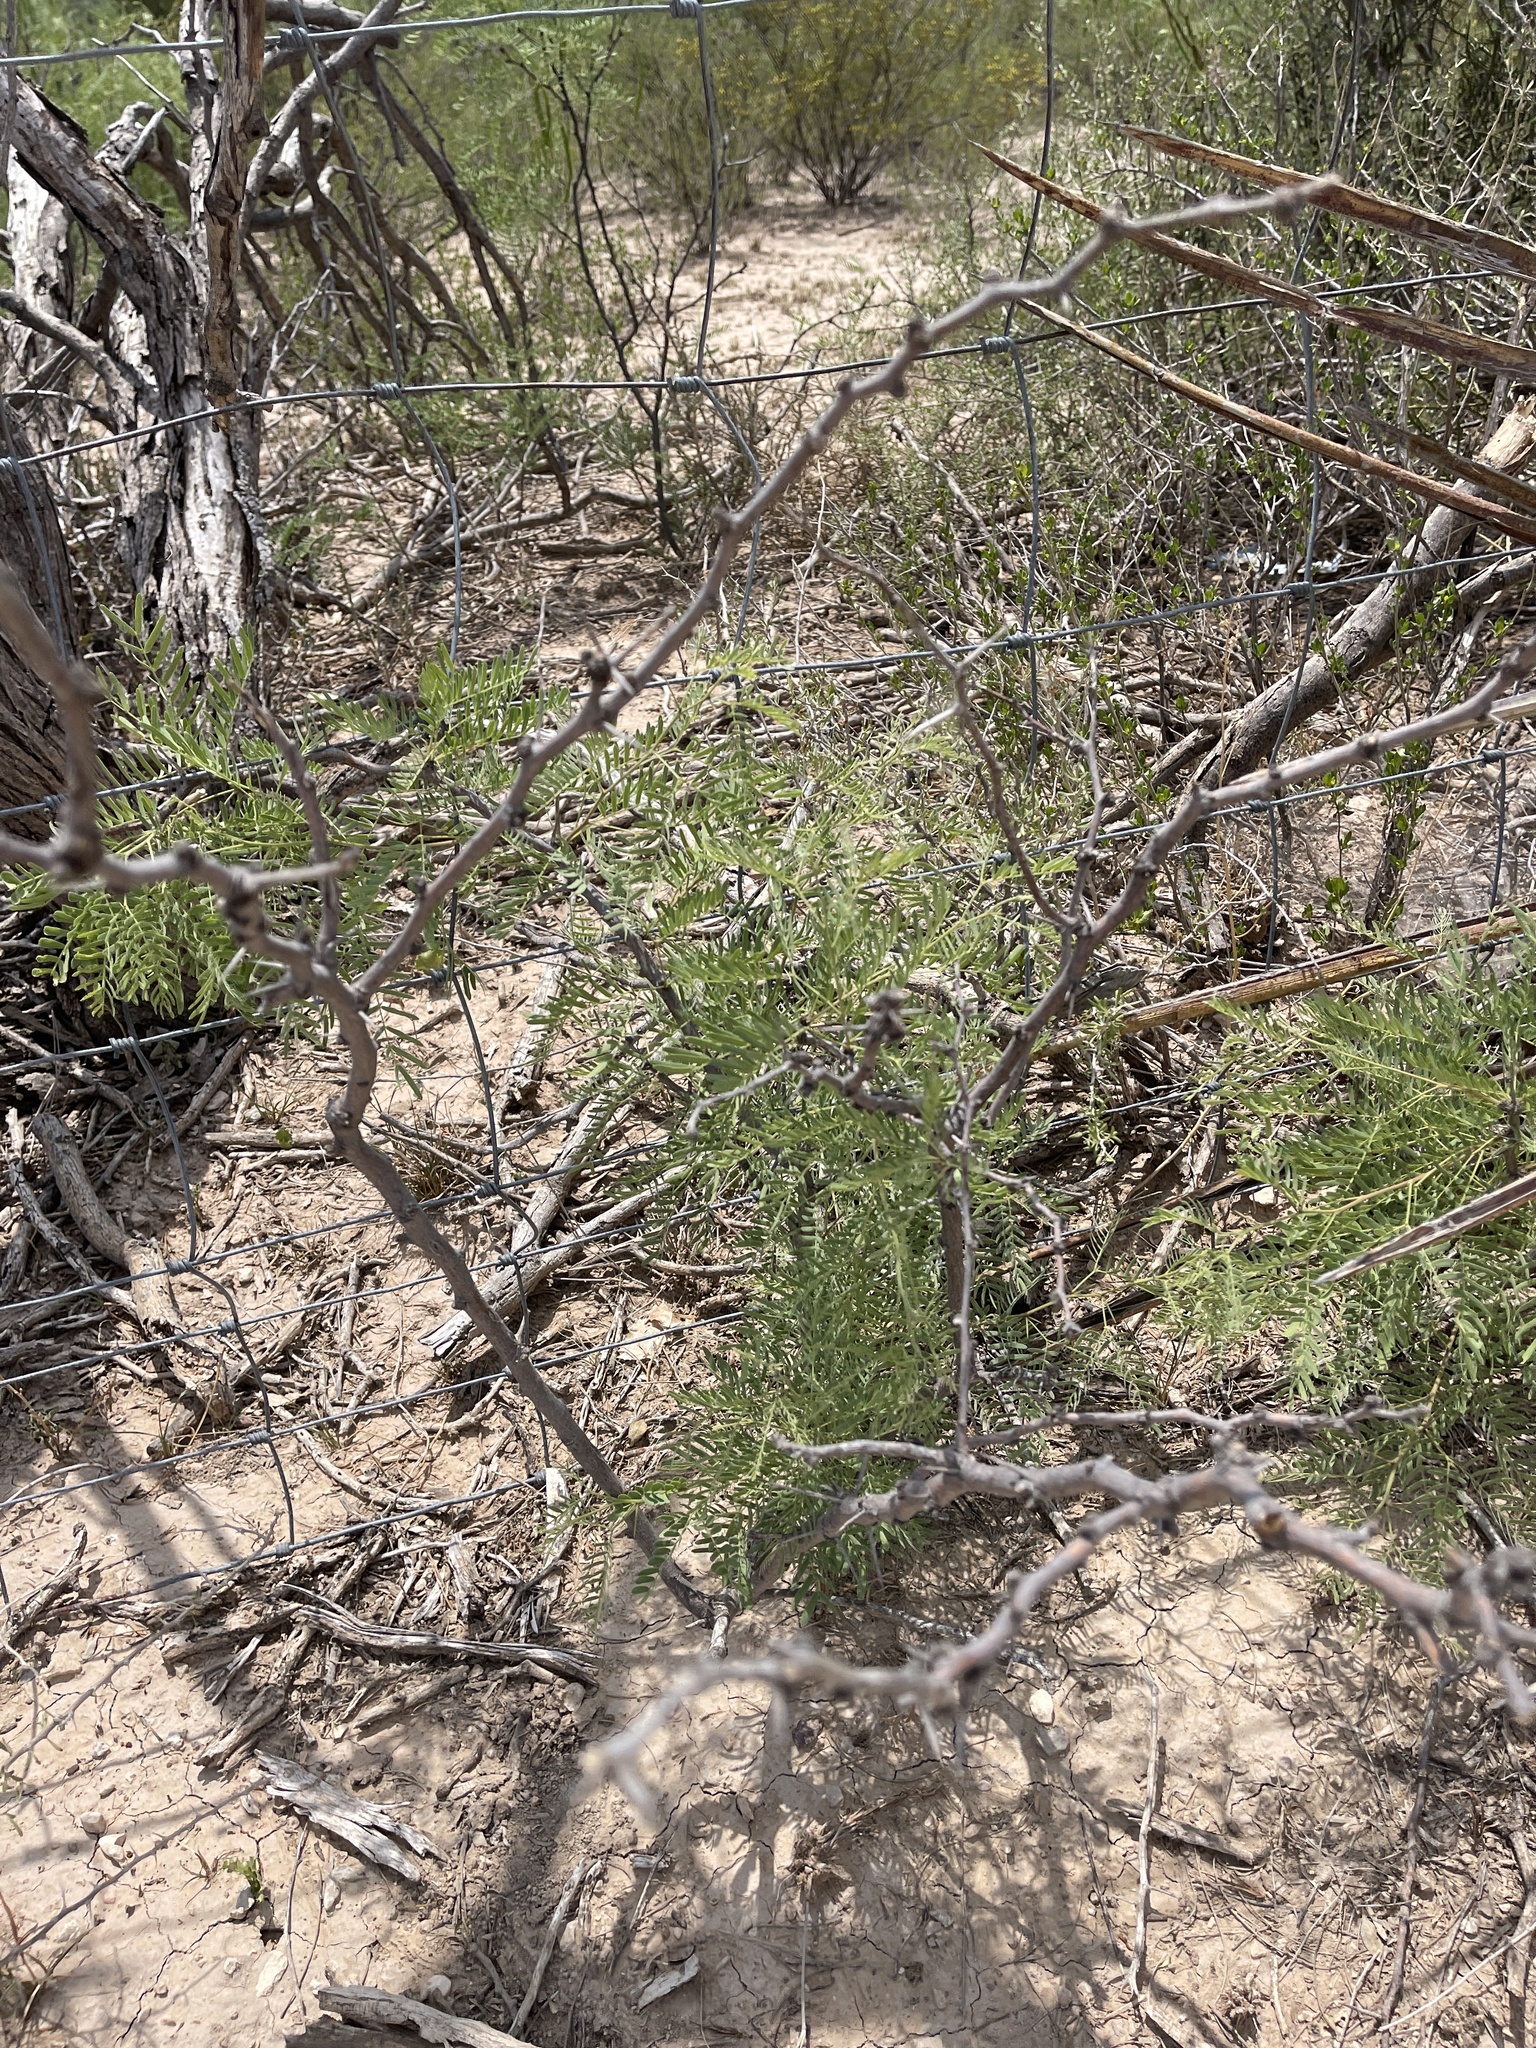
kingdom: Plantae
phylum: Tracheophyta
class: Magnoliopsida
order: Fabales
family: Fabaceae
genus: Prosopis
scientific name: Prosopis glandulosa
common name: Honey mesquite
